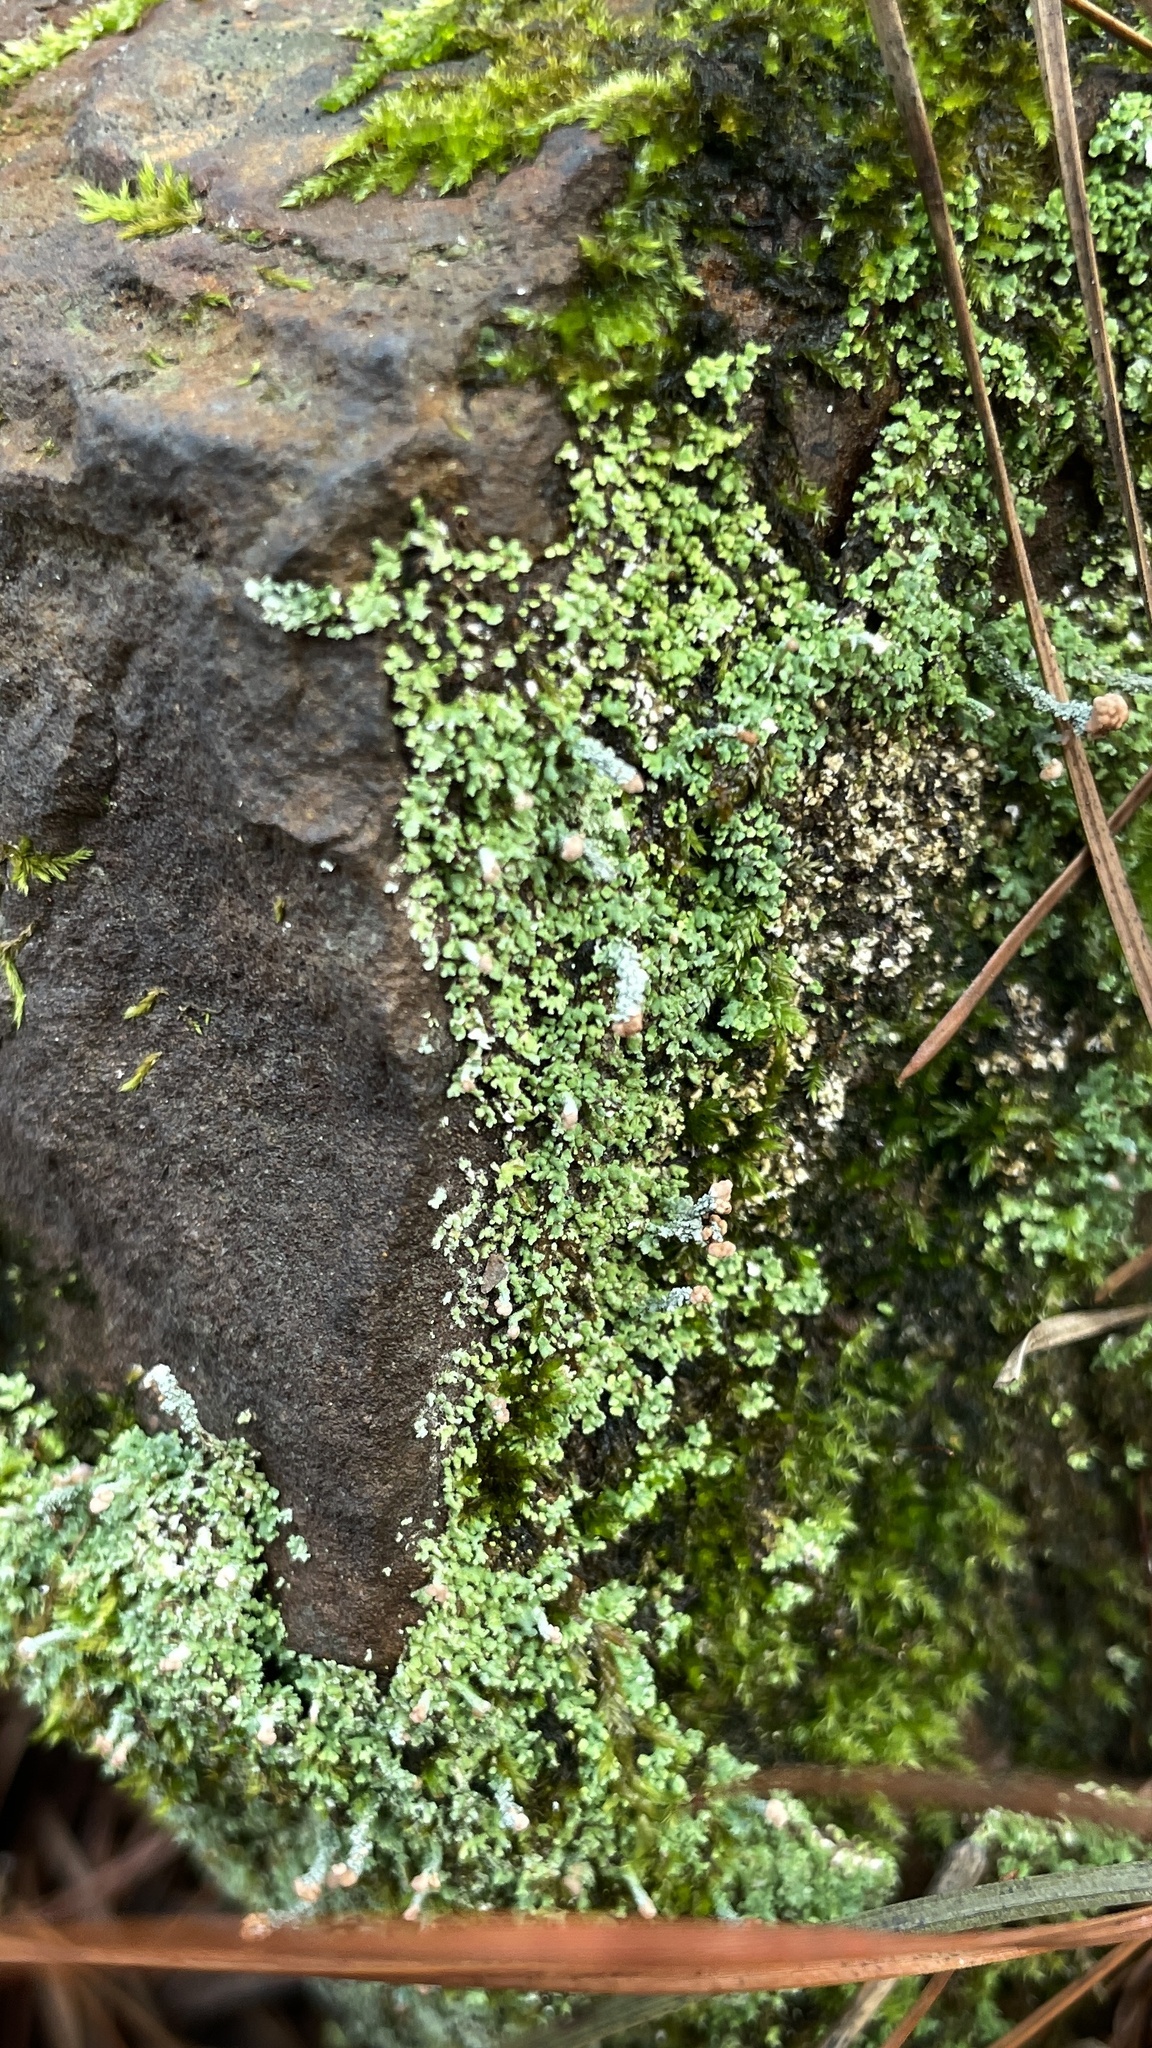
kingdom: Fungi
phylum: Ascomycota
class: Lecanoromycetes
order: Lecanorales
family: Cladoniaceae
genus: Cladonia
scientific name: Cladonia peziziformis
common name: Cup lichen
